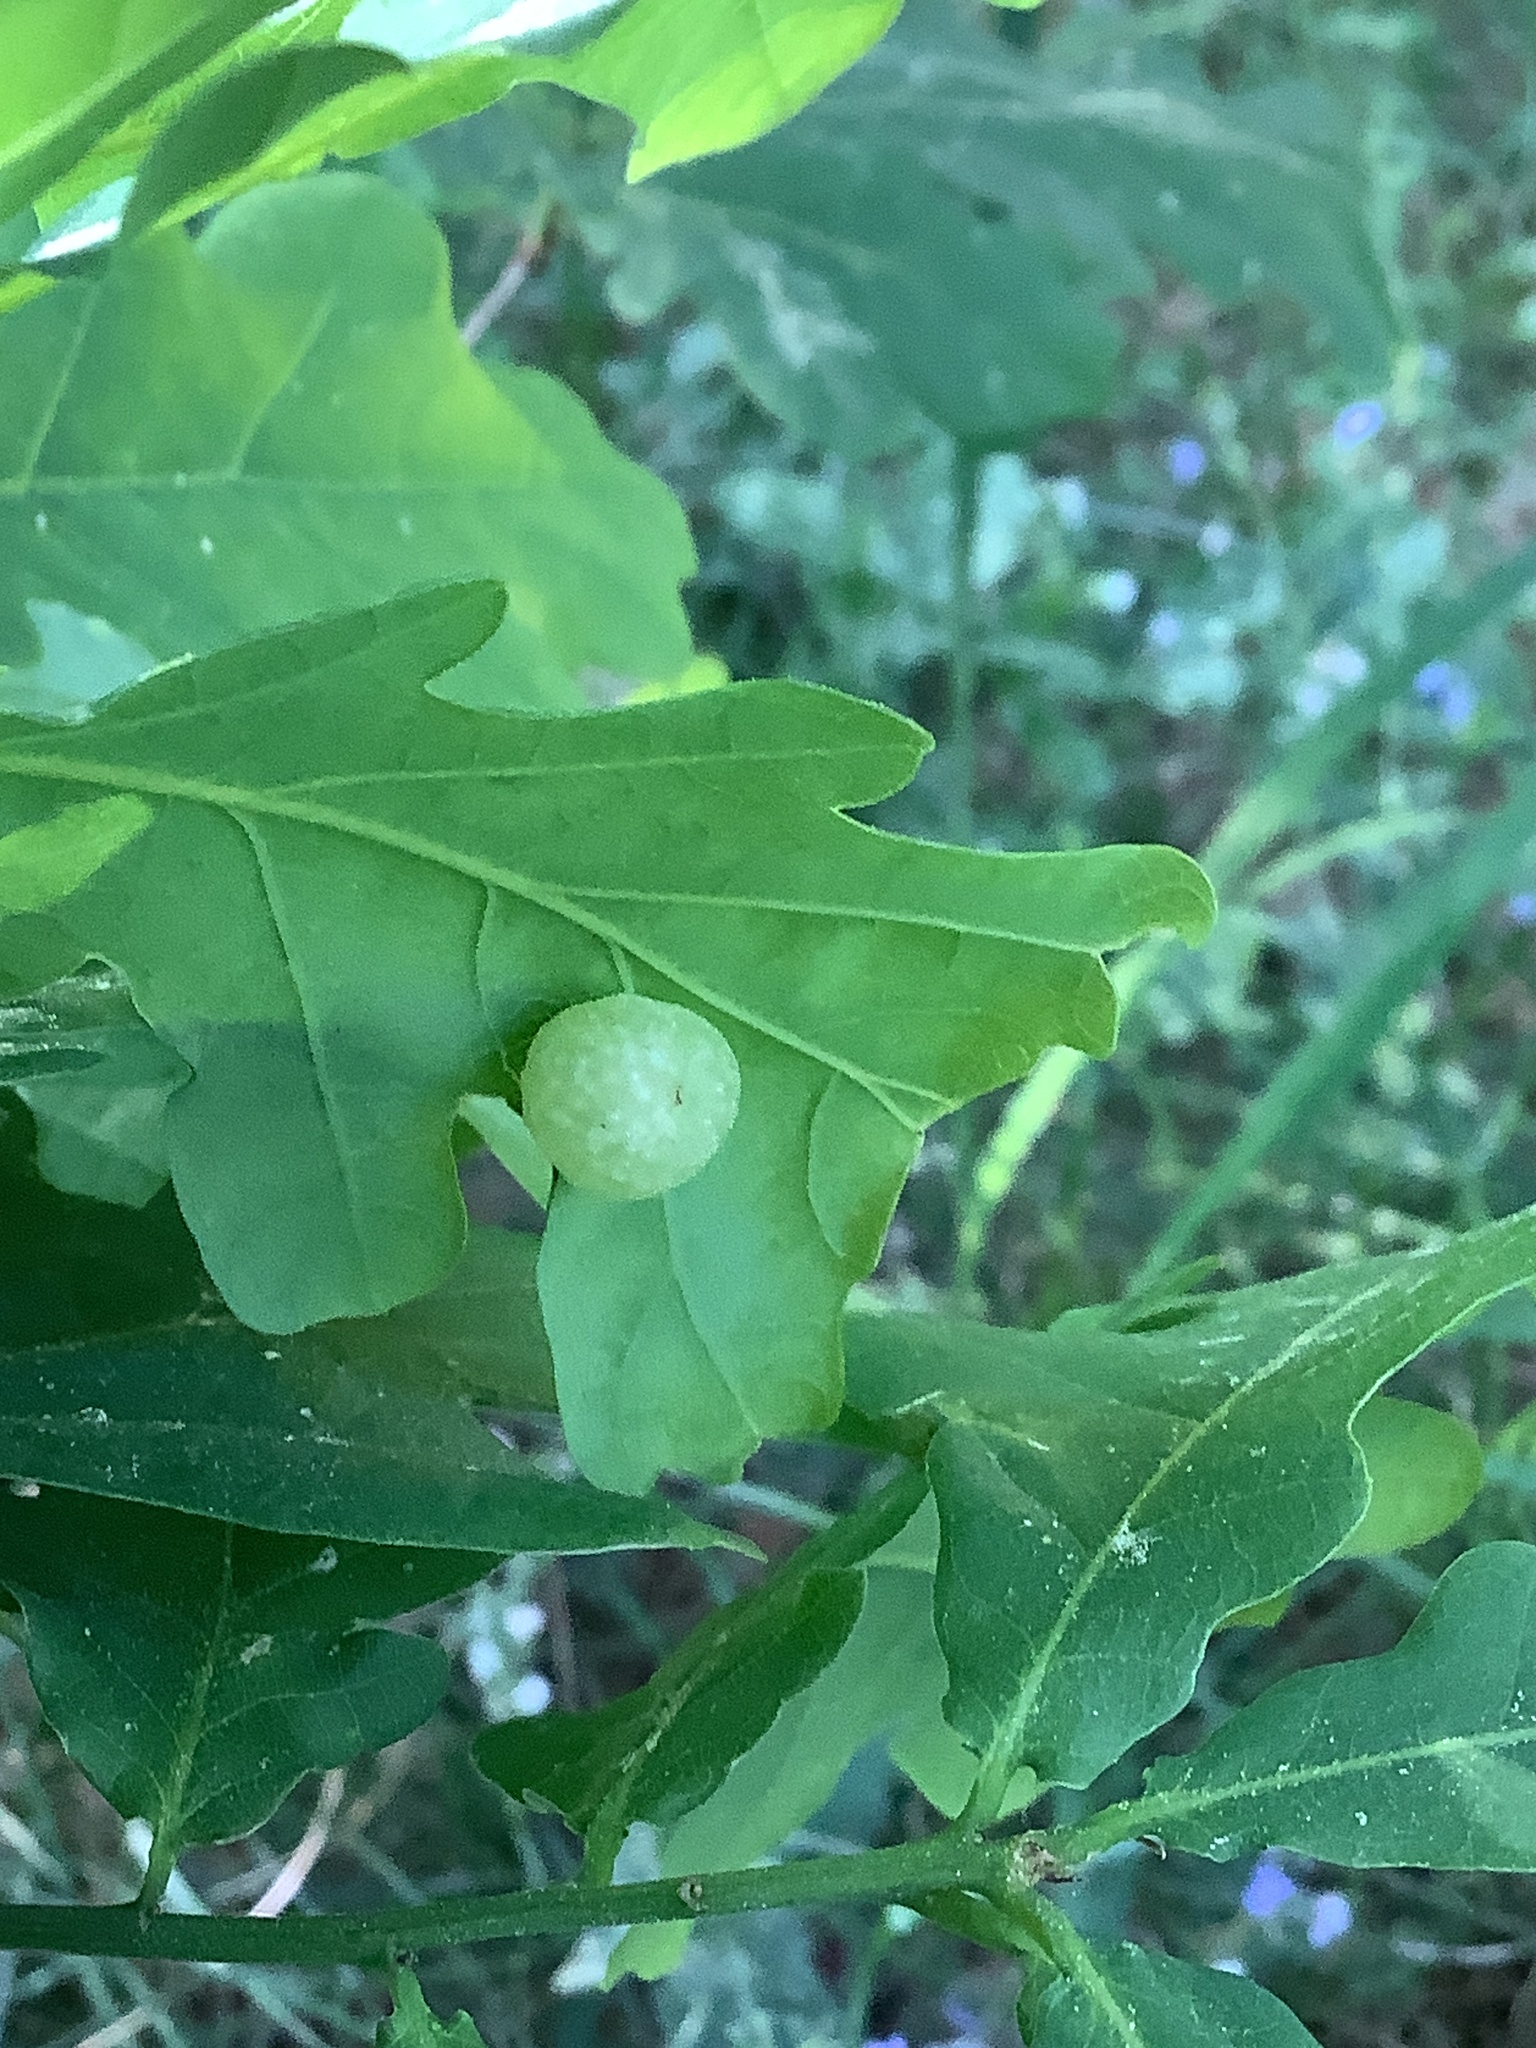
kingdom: Animalia
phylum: Arthropoda
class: Insecta
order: Hymenoptera
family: Cynipidae
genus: Neuroterus
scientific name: Neuroterus quercusbaccarum
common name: Common spangle gall
